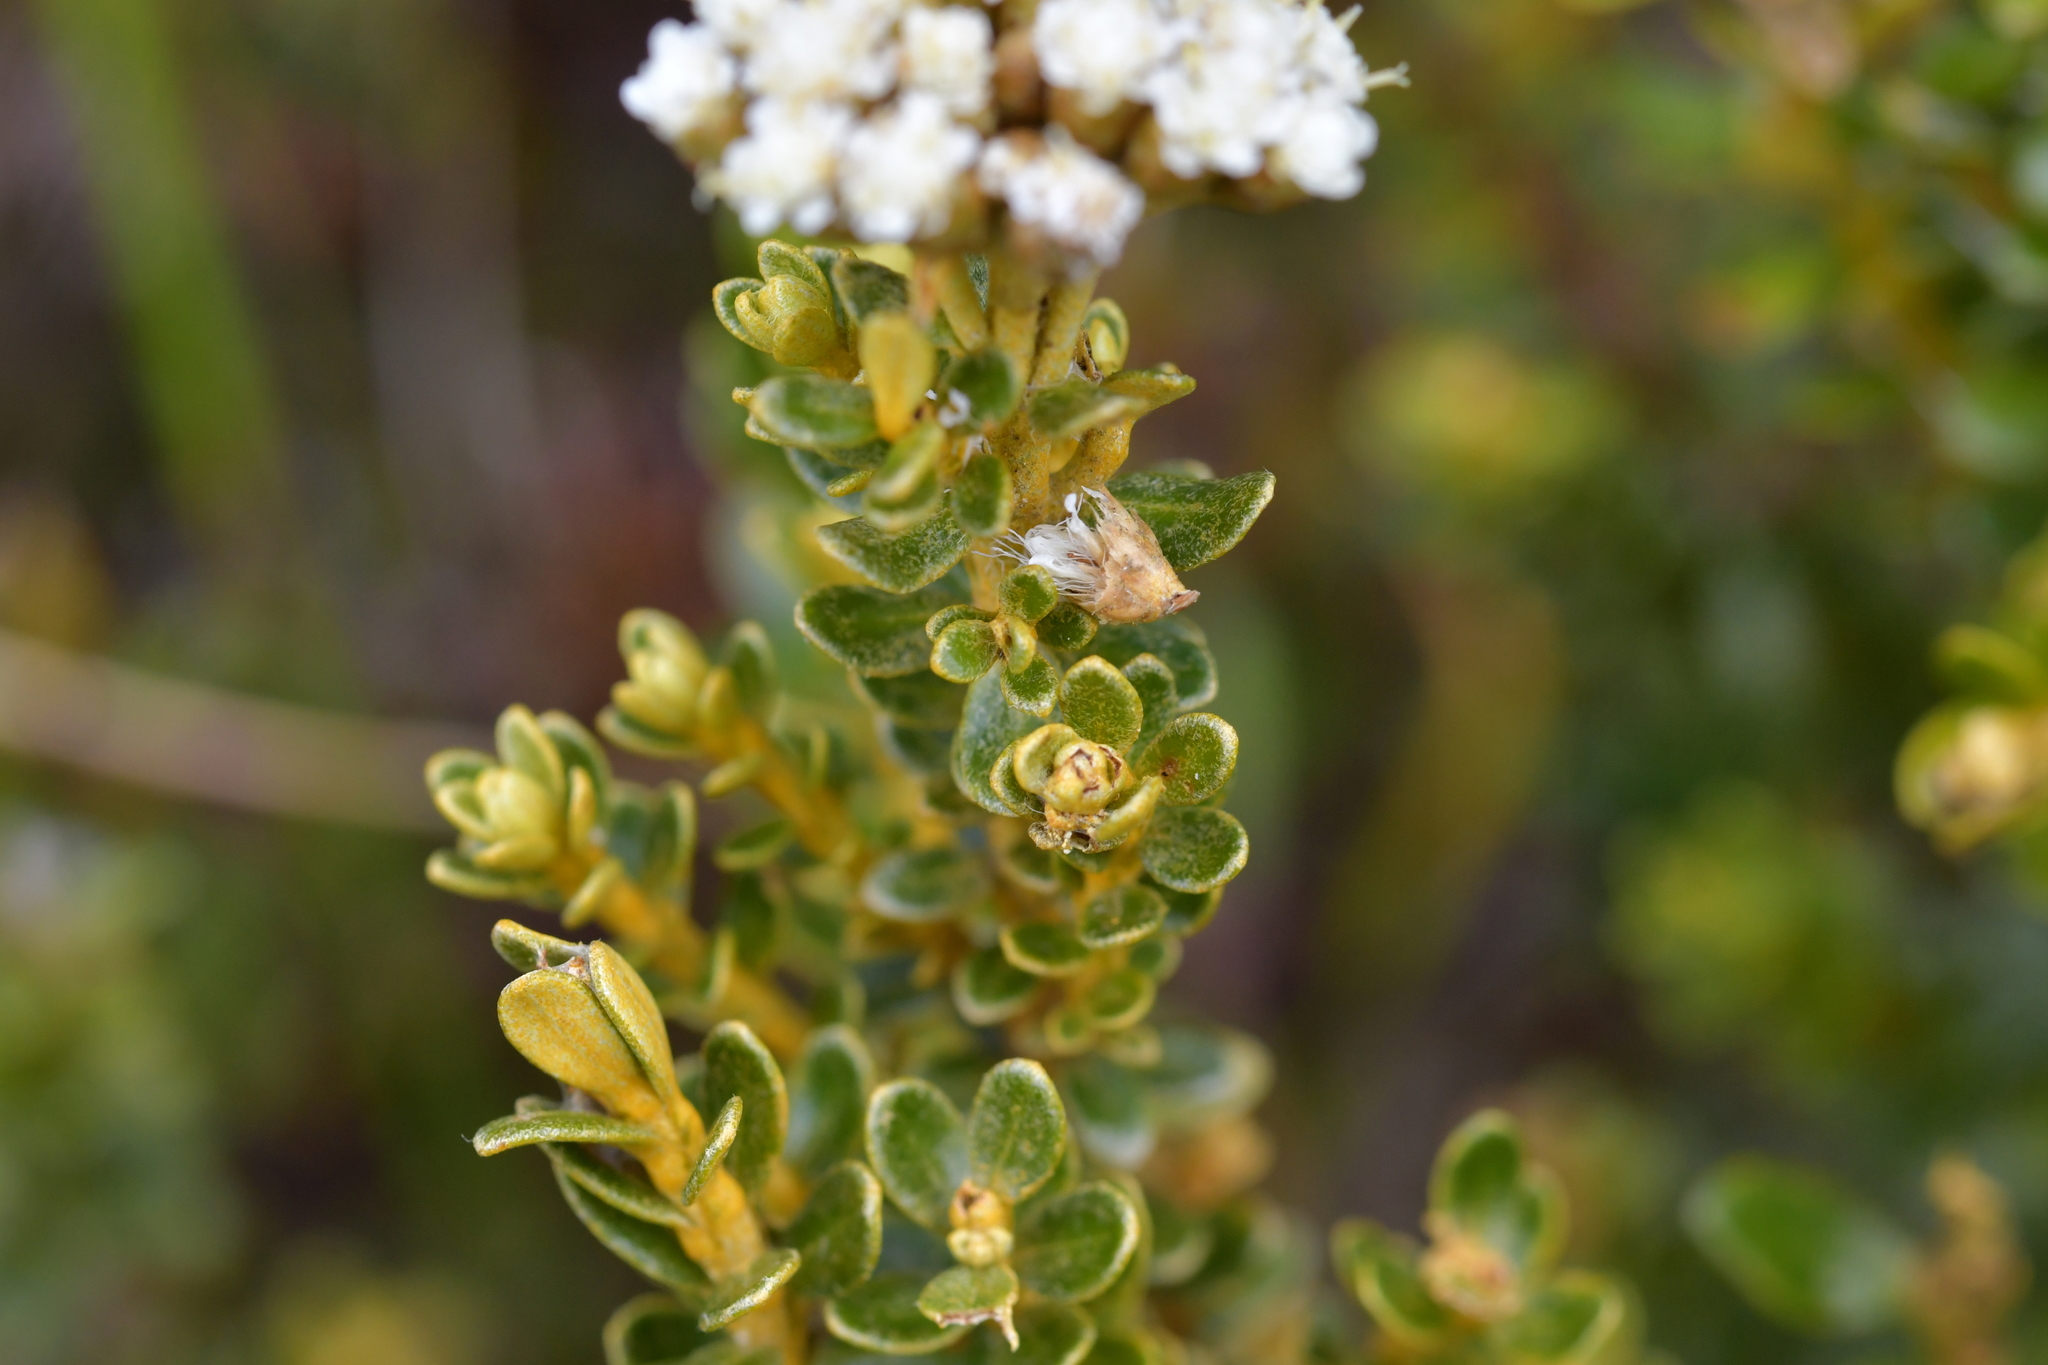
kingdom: Plantae
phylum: Tracheophyta
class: Magnoliopsida
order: Asterales
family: Asteraceae
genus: Ozothamnus
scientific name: Ozothamnus leptophyllus
